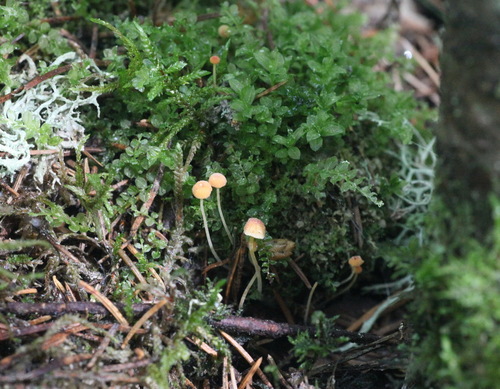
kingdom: Fungi
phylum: Basidiomycota
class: Agaricomycetes
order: Agaricales
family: Mycenaceae
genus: Mycena
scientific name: Mycena acicula
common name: Orange bonnet
